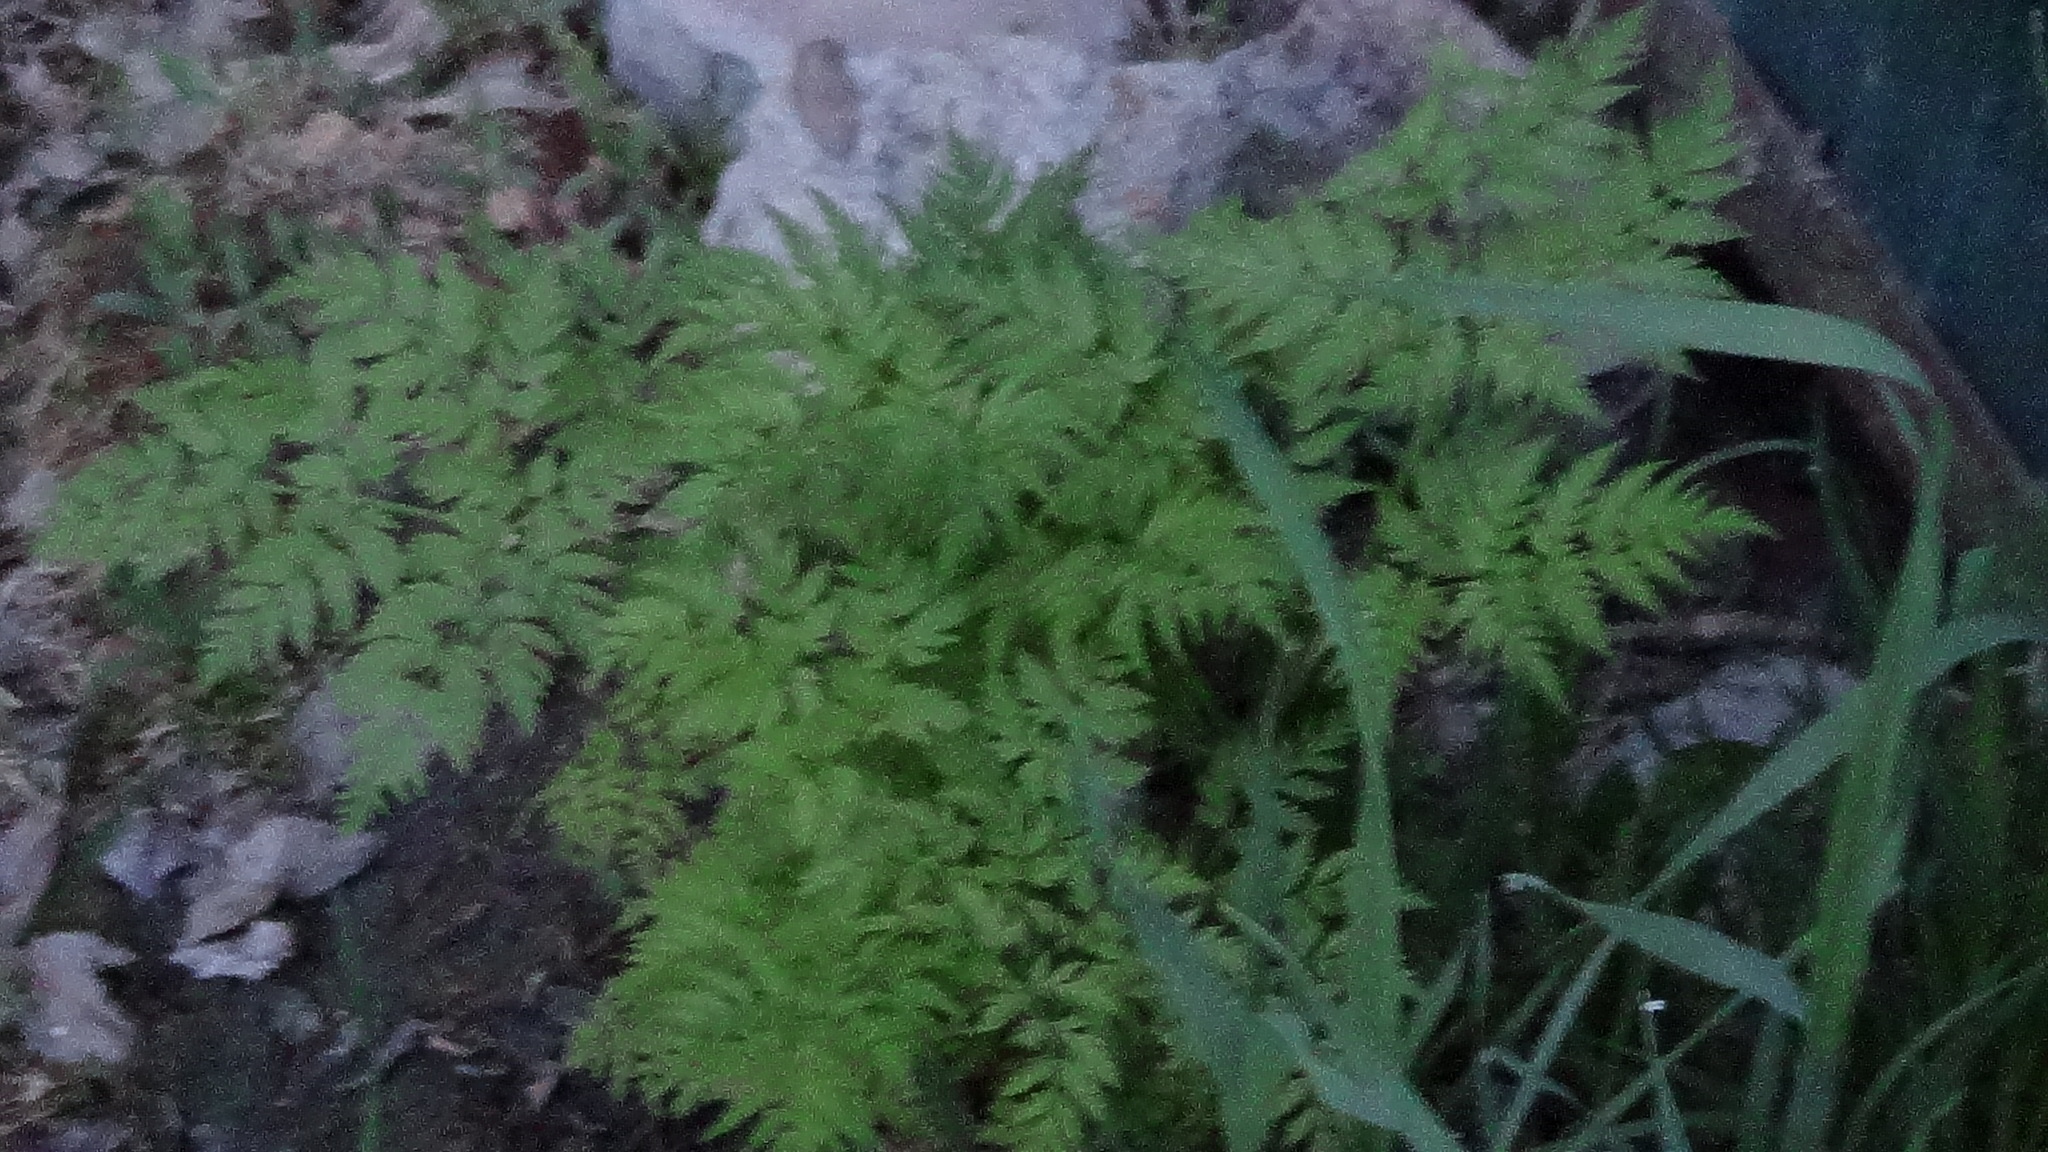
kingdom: Plantae
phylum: Tracheophyta
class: Magnoliopsida
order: Apiales
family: Apiaceae
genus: Anthriscus
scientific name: Anthriscus sylvestris
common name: Cow parsley
